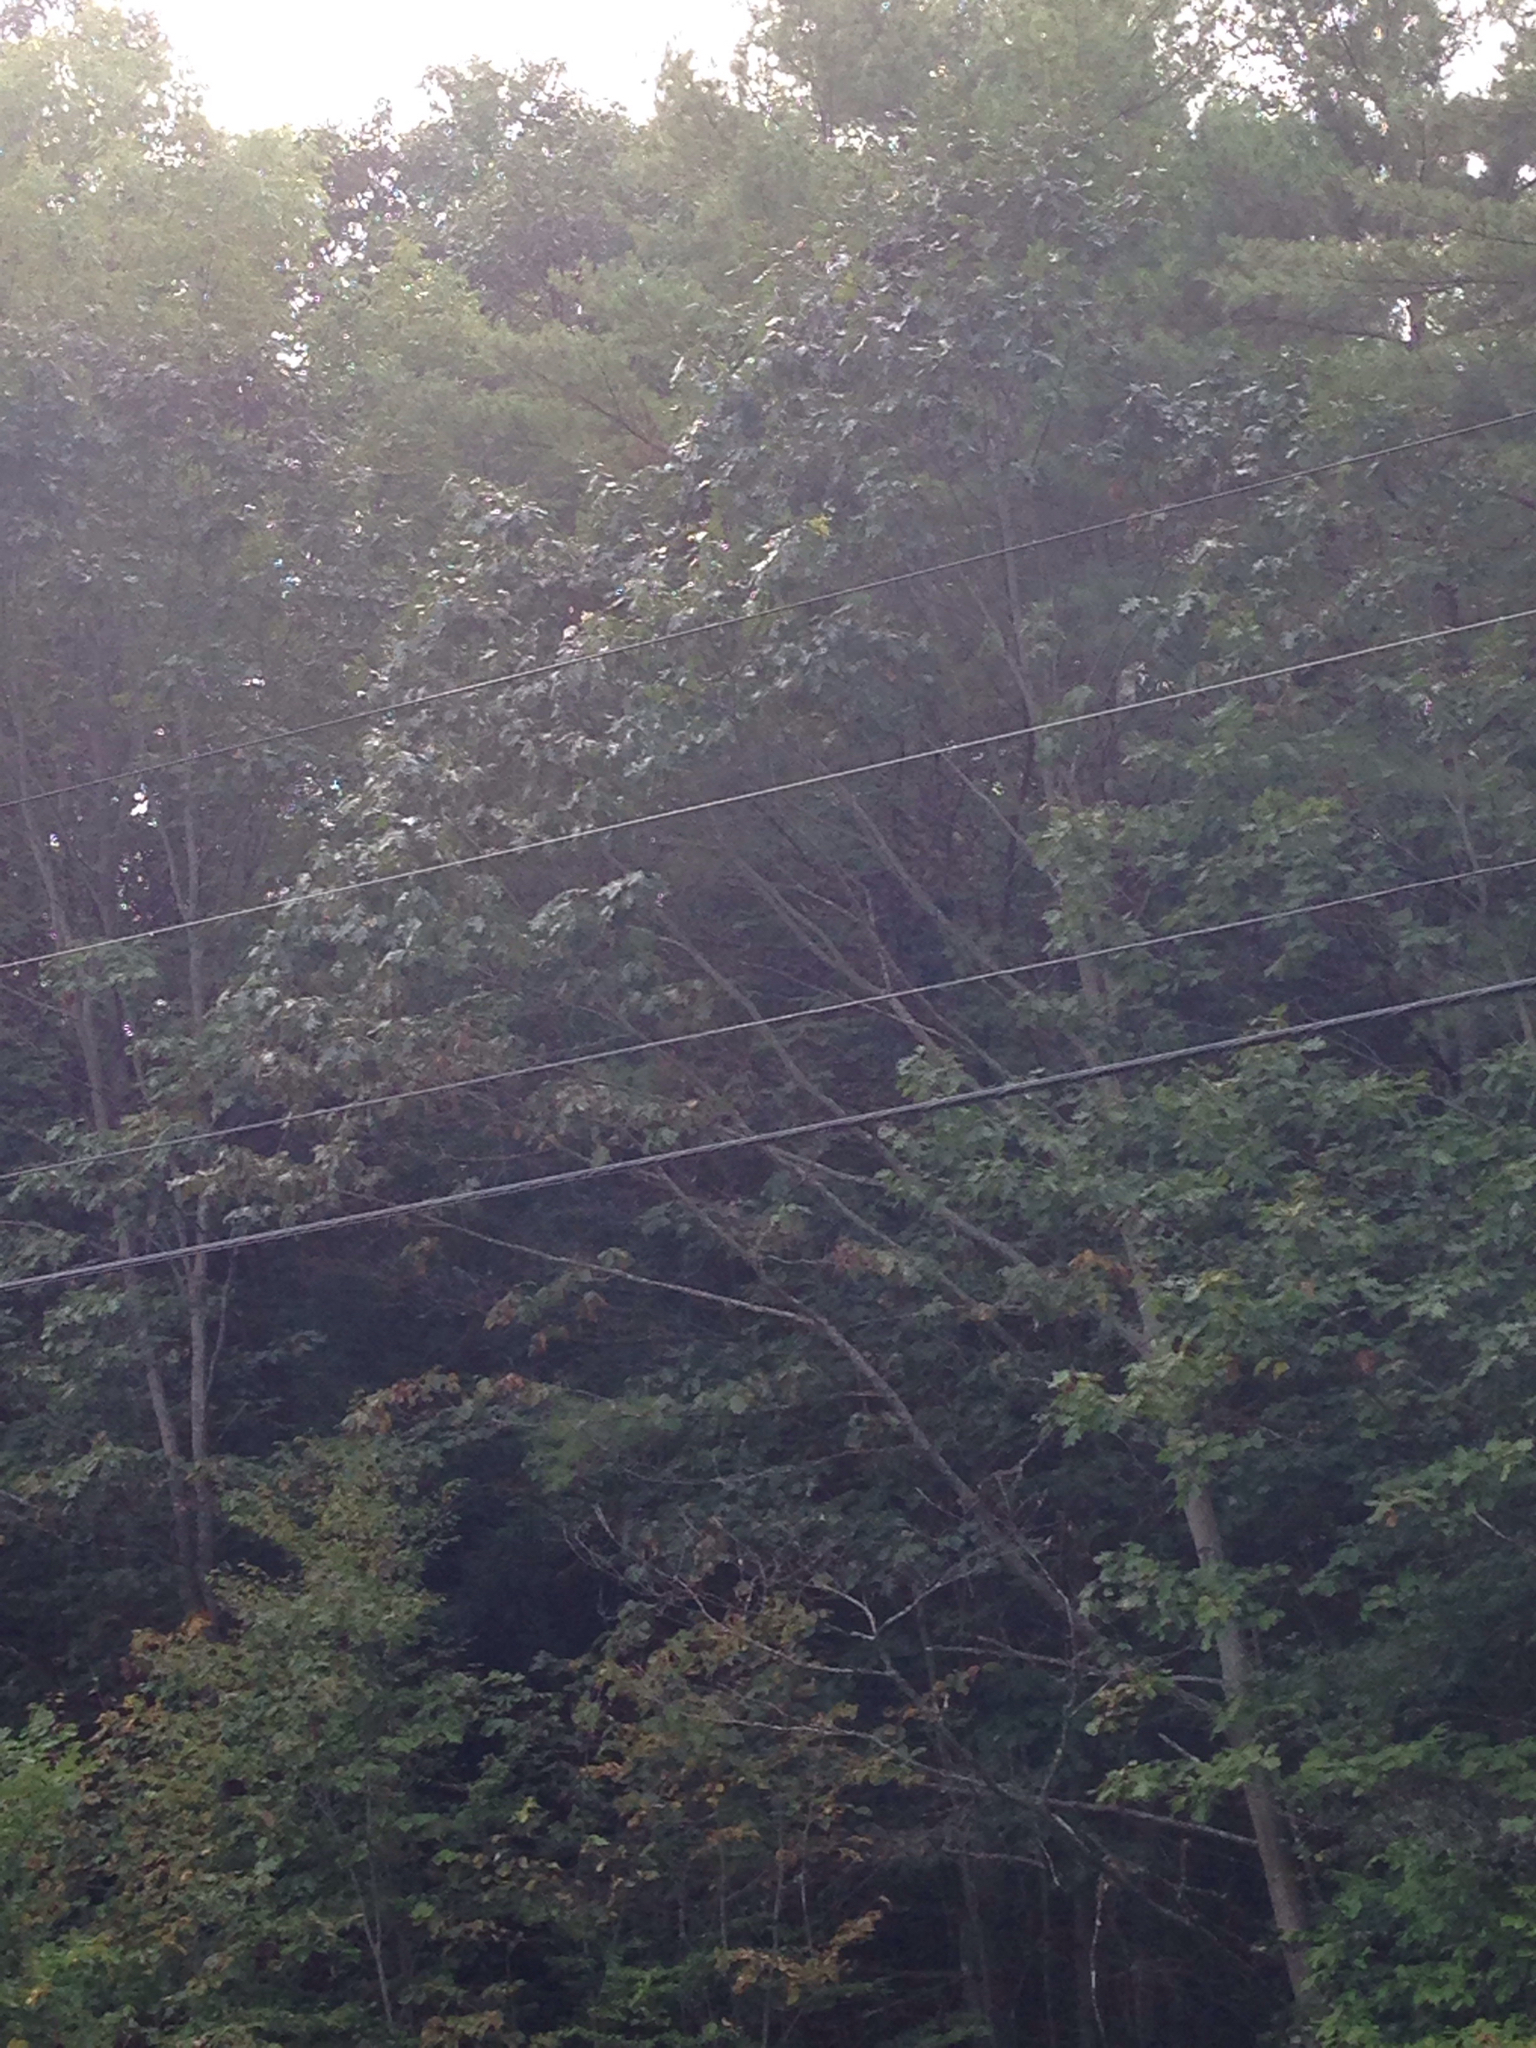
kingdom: Plantae
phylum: Tracheophyta
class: Magnoliopsida
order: Fagales
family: Fagaceae
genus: Quercus
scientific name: Quercus rubra
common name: Red oak
